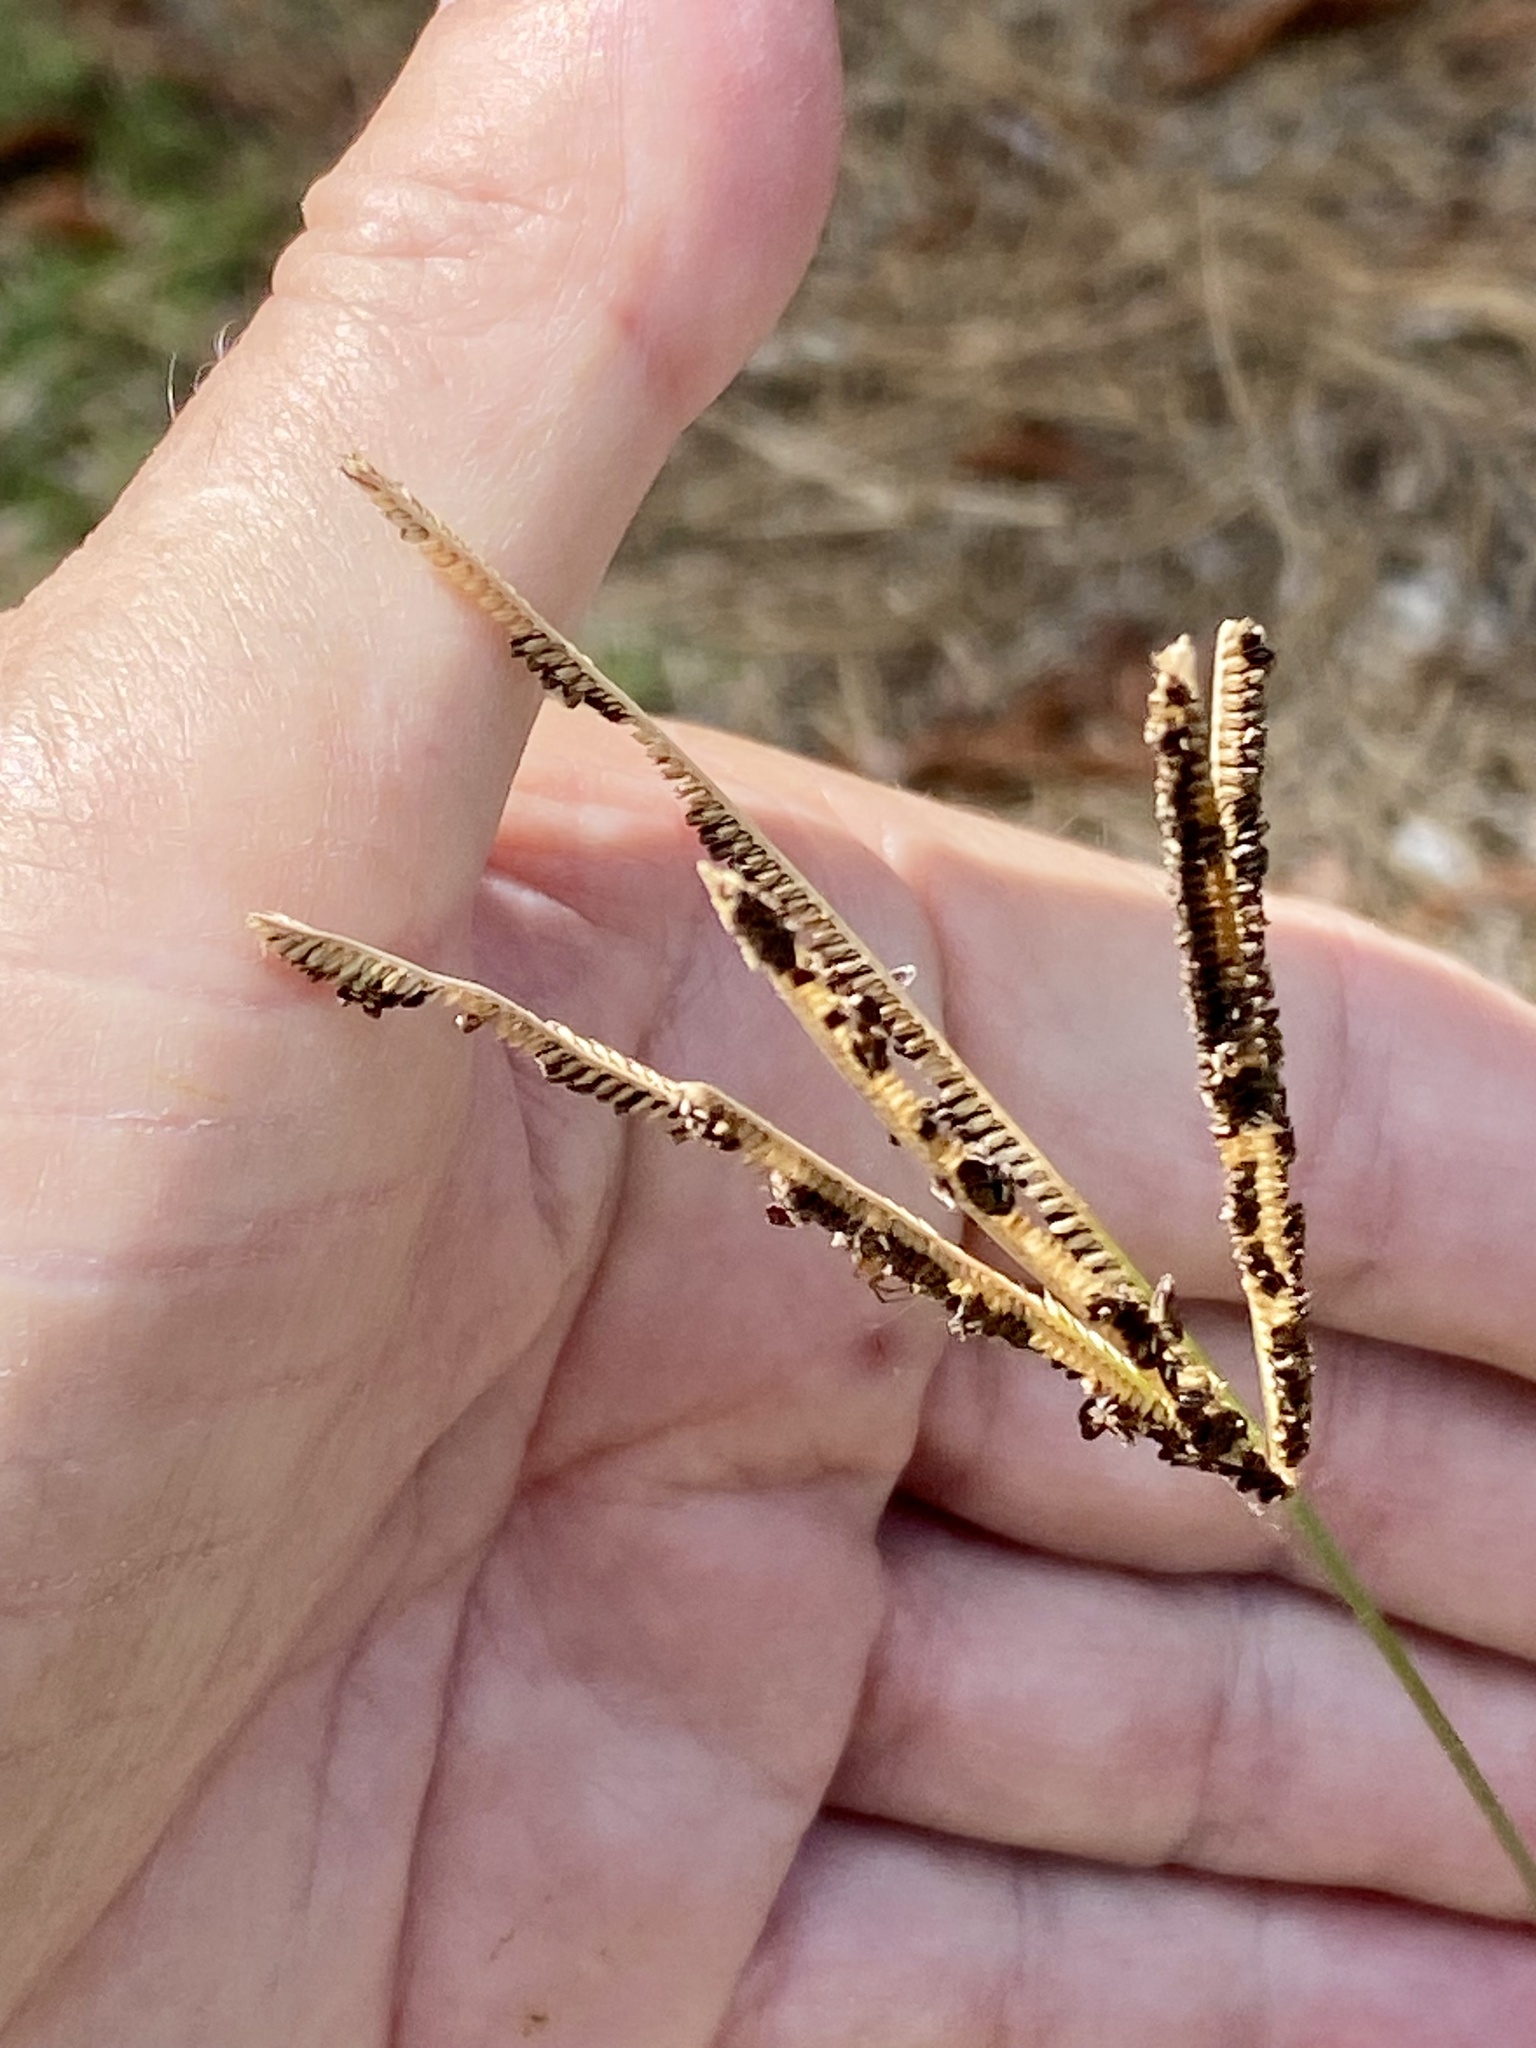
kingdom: Plantae
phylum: Tracheophyta
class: Liliopsida
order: Poales
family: Poaceae
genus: Eustachys
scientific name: Eustachys petraea
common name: Pinewoods fingergrass
